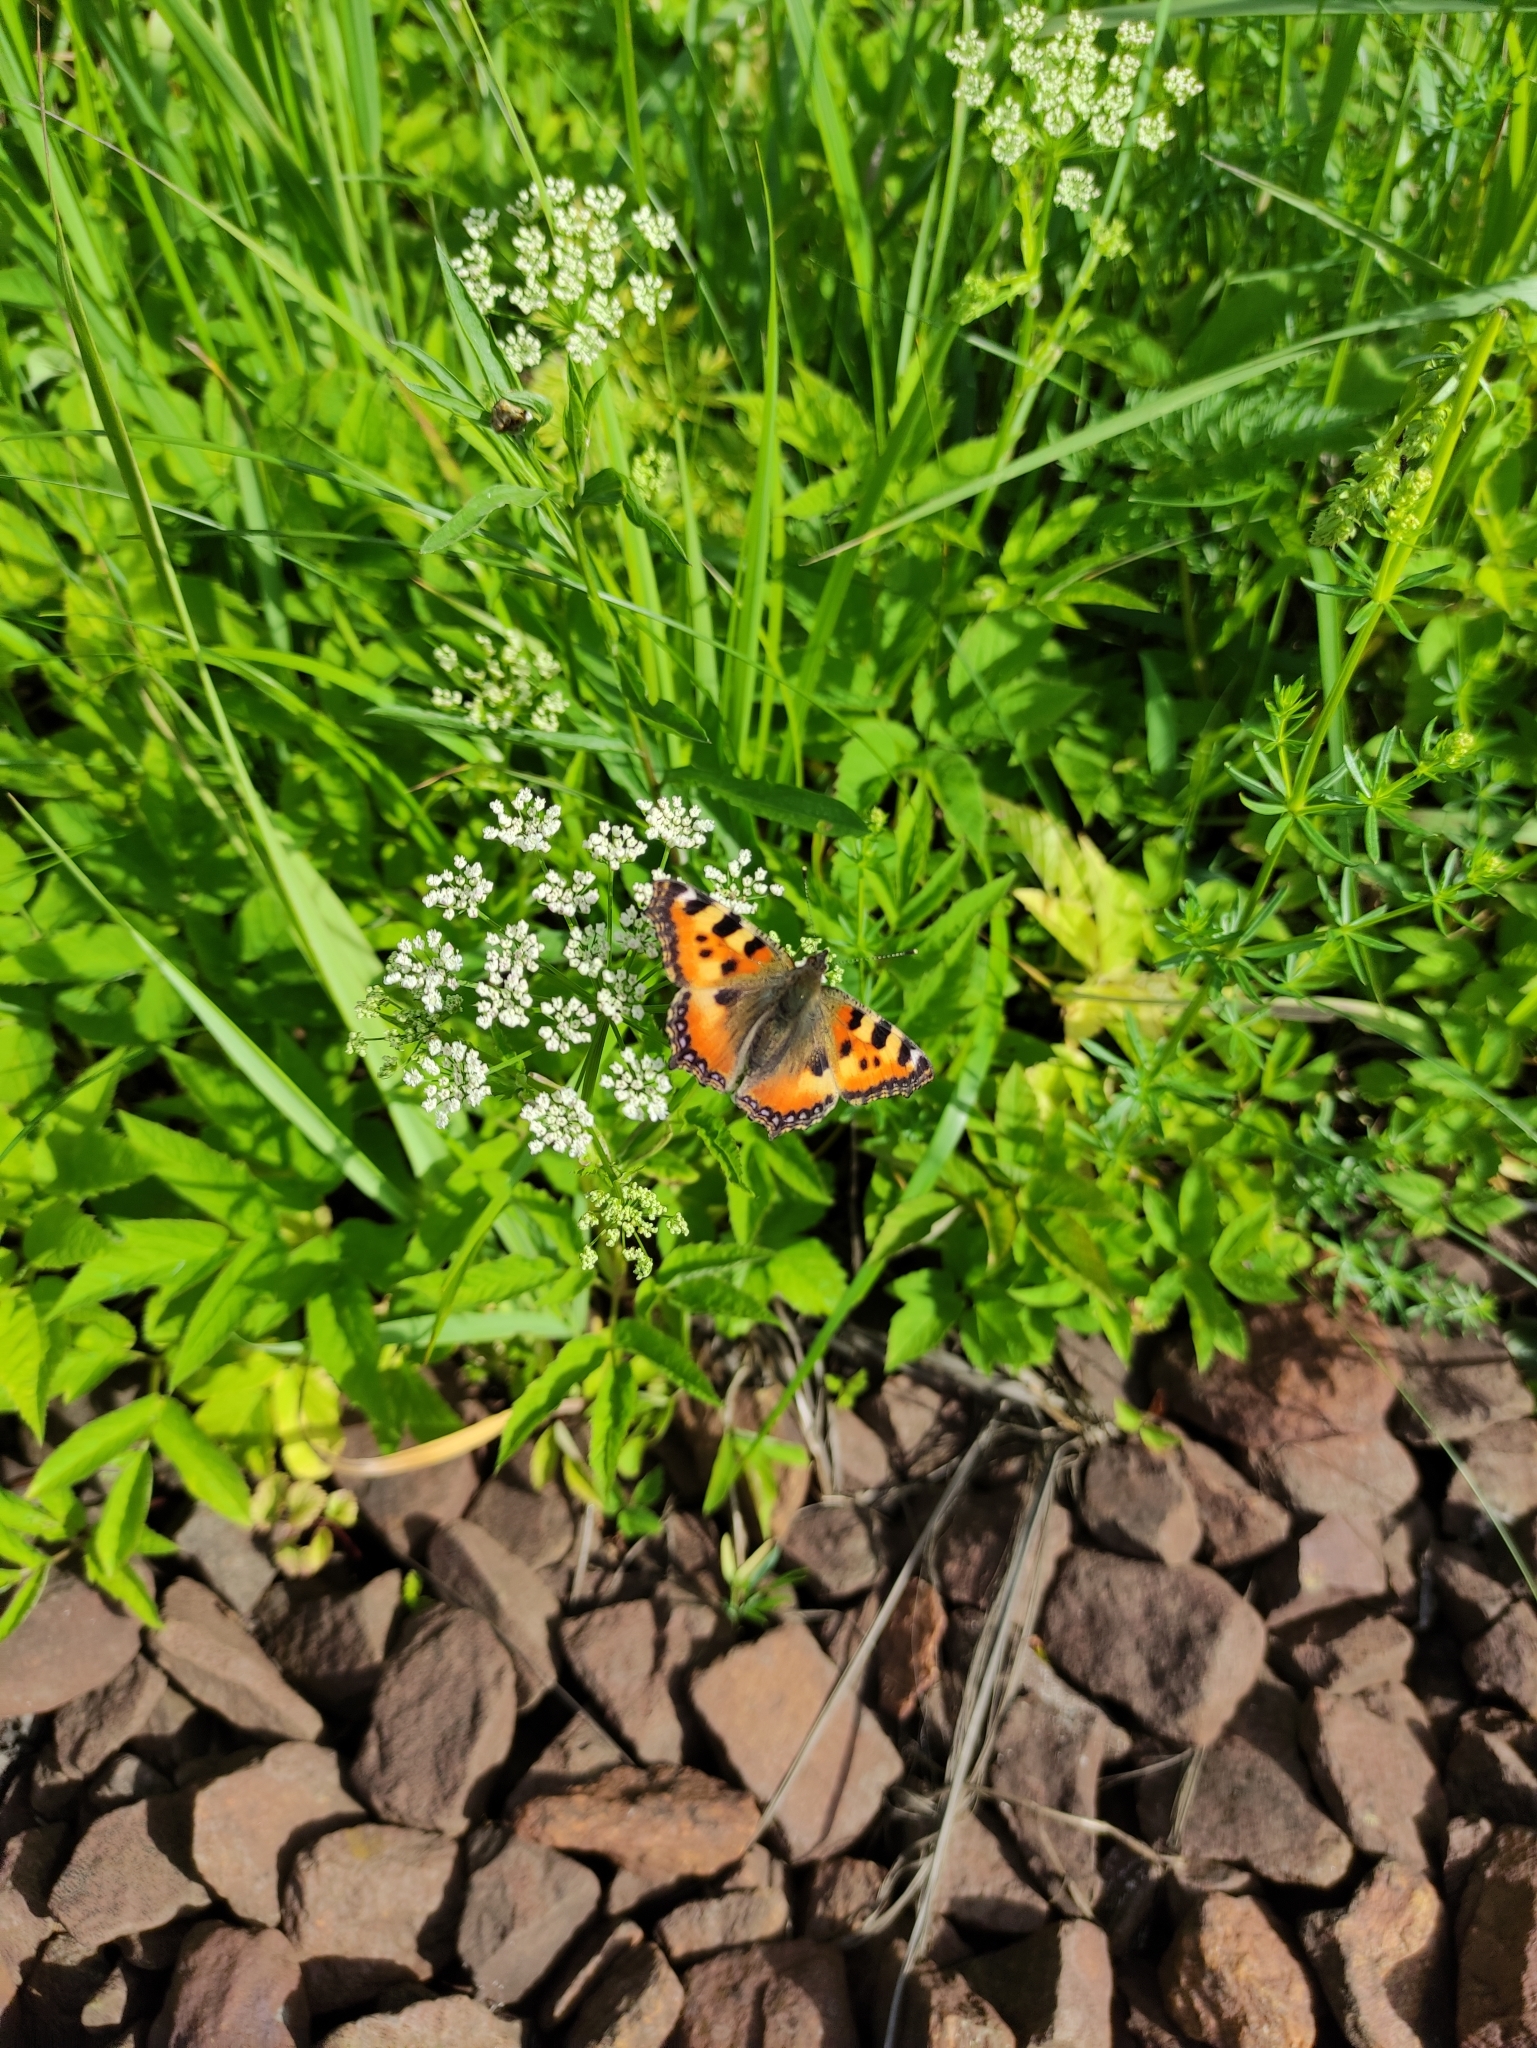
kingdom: Animalia
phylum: Arthropoda
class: Insecta
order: Lepidoptera
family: Nymphalidae
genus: Aglais
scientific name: Aglais urticae
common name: Small tortoiseshell
